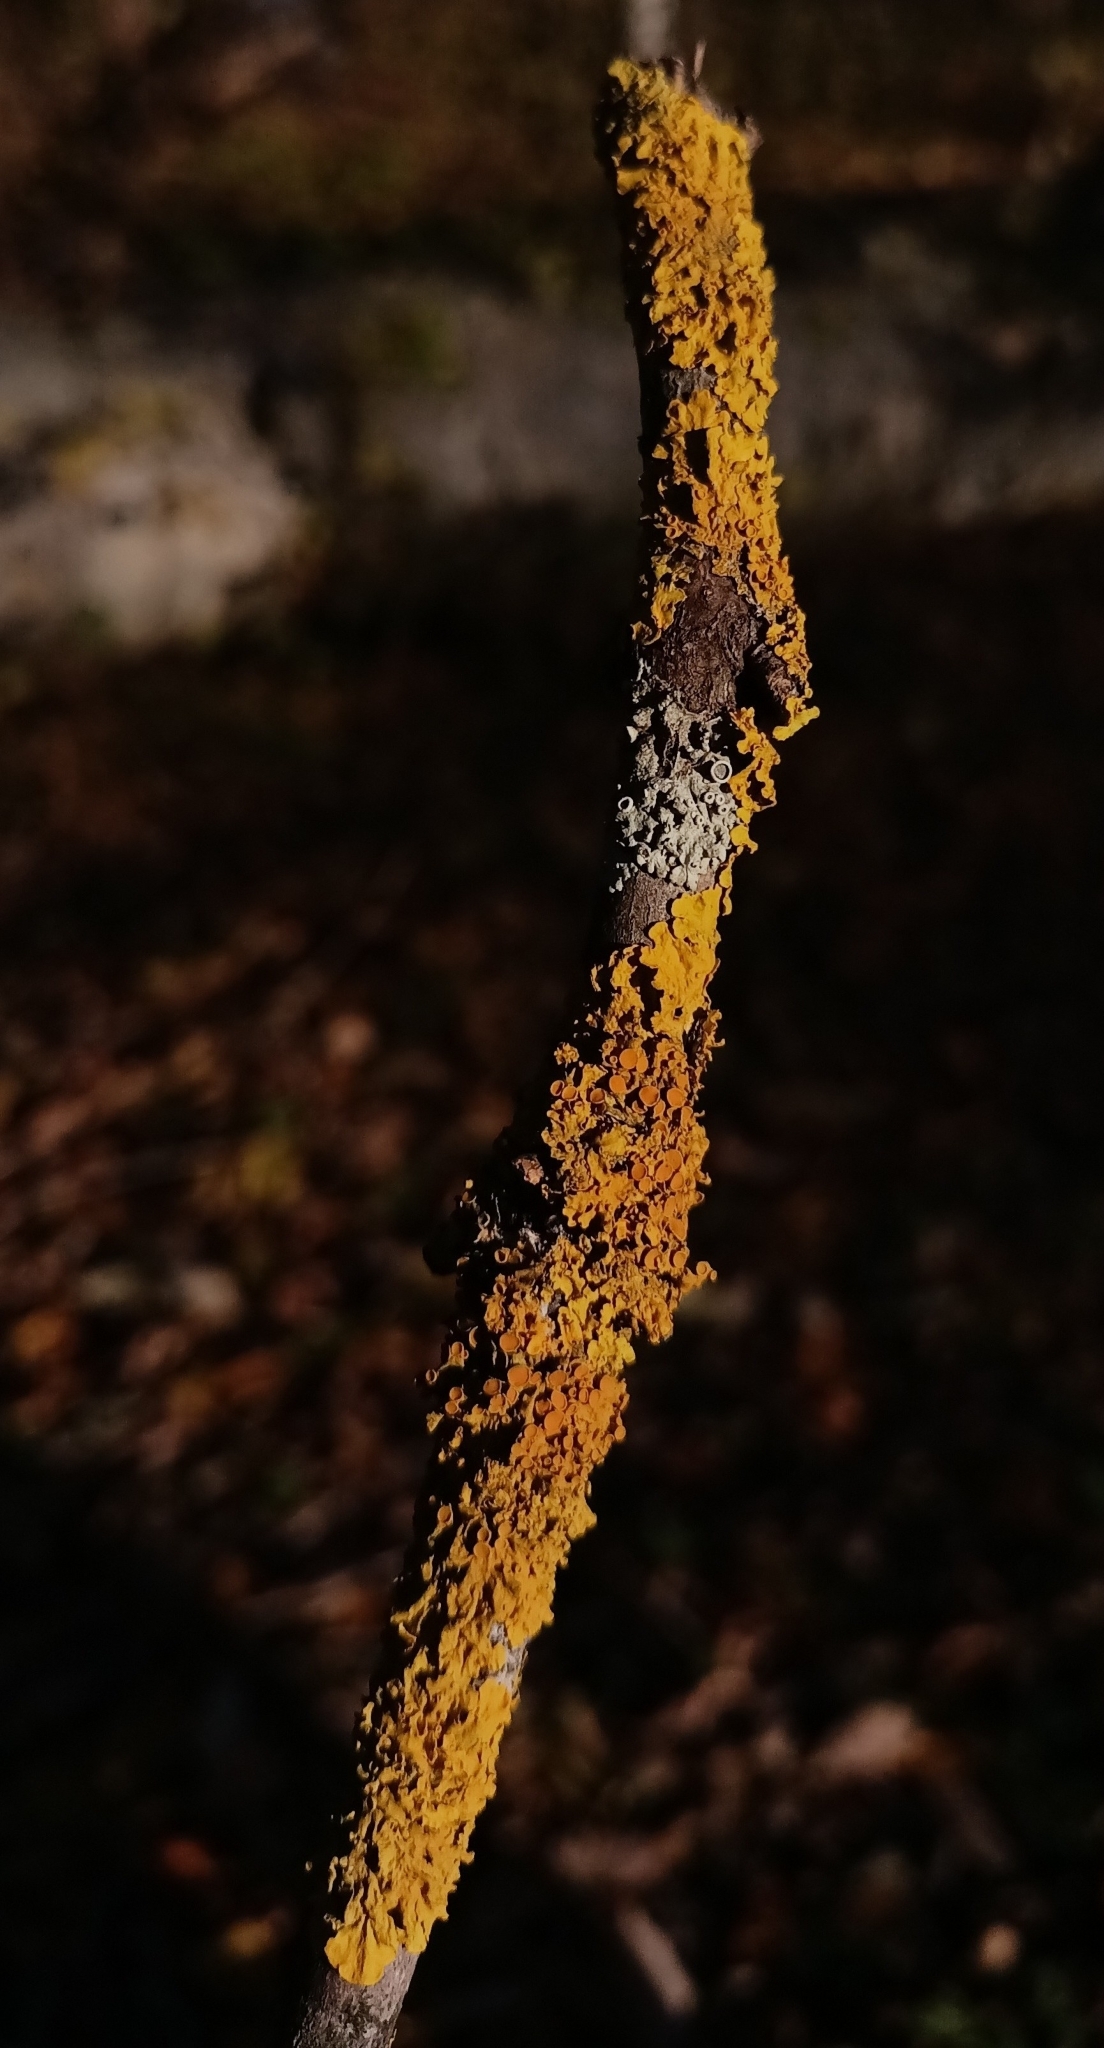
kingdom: Fungi
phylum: Ascomycota
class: Lecanoromycetes
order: Teloschistales
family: Teloschistaceae
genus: Xanthoria
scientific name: Xanthoria parietina
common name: Common orange lichen
